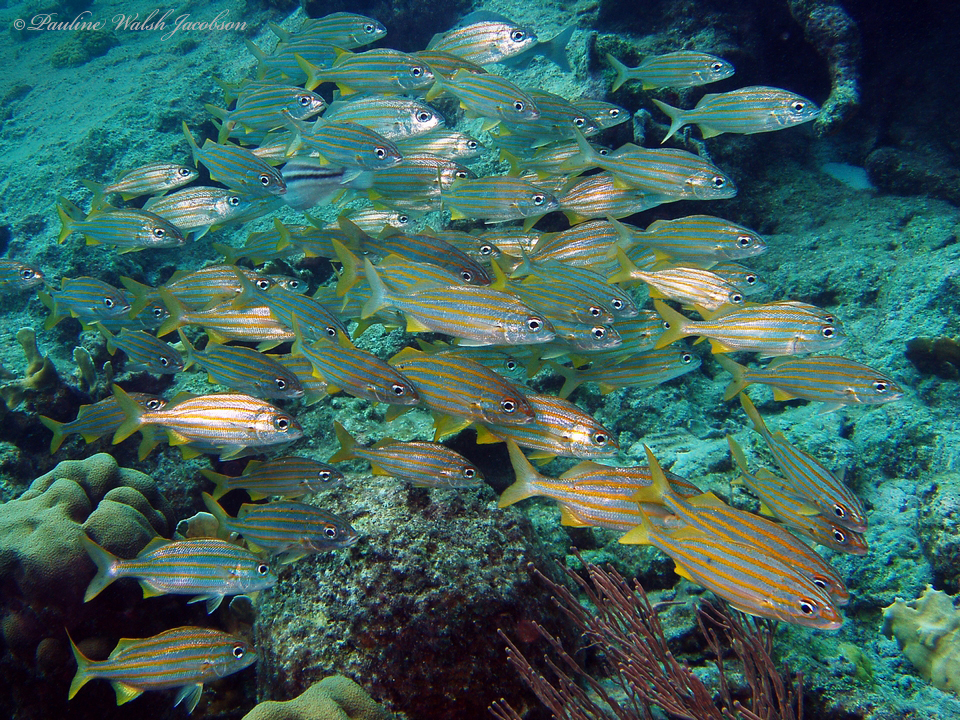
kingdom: Animalia
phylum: Chordata
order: Perciformes
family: Haemulidae
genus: Haemulon
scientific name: Haemulon chrysargyreum
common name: Smallmouth grunt
